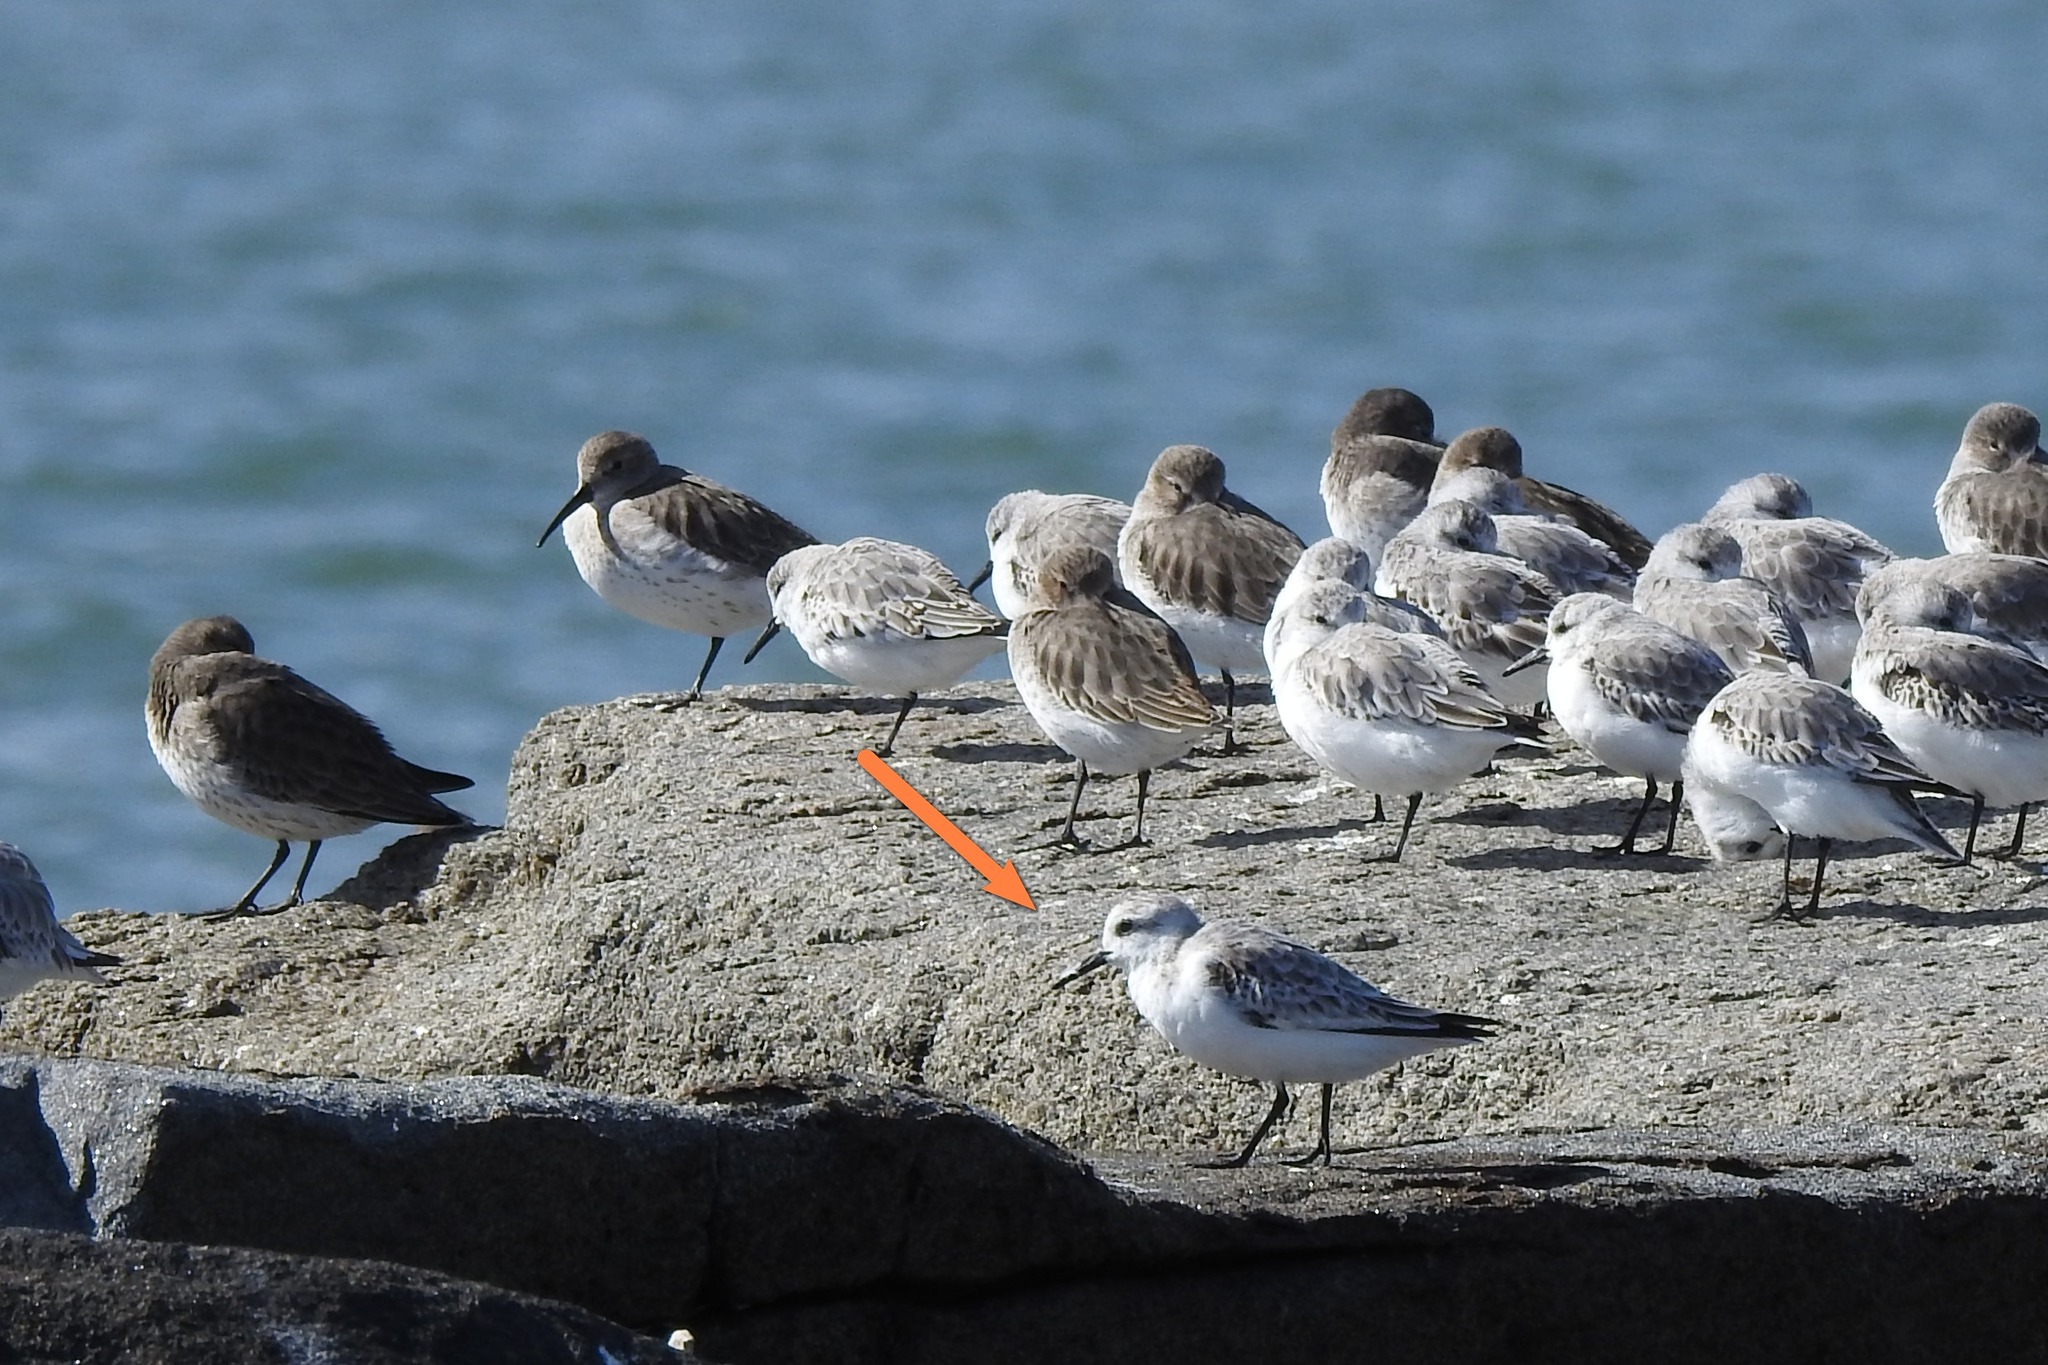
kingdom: Animalia
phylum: Chordata
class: Aves
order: Charadriiformes
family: Scolopacidae
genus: Calidris
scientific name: Calidris alba
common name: Sanderling
